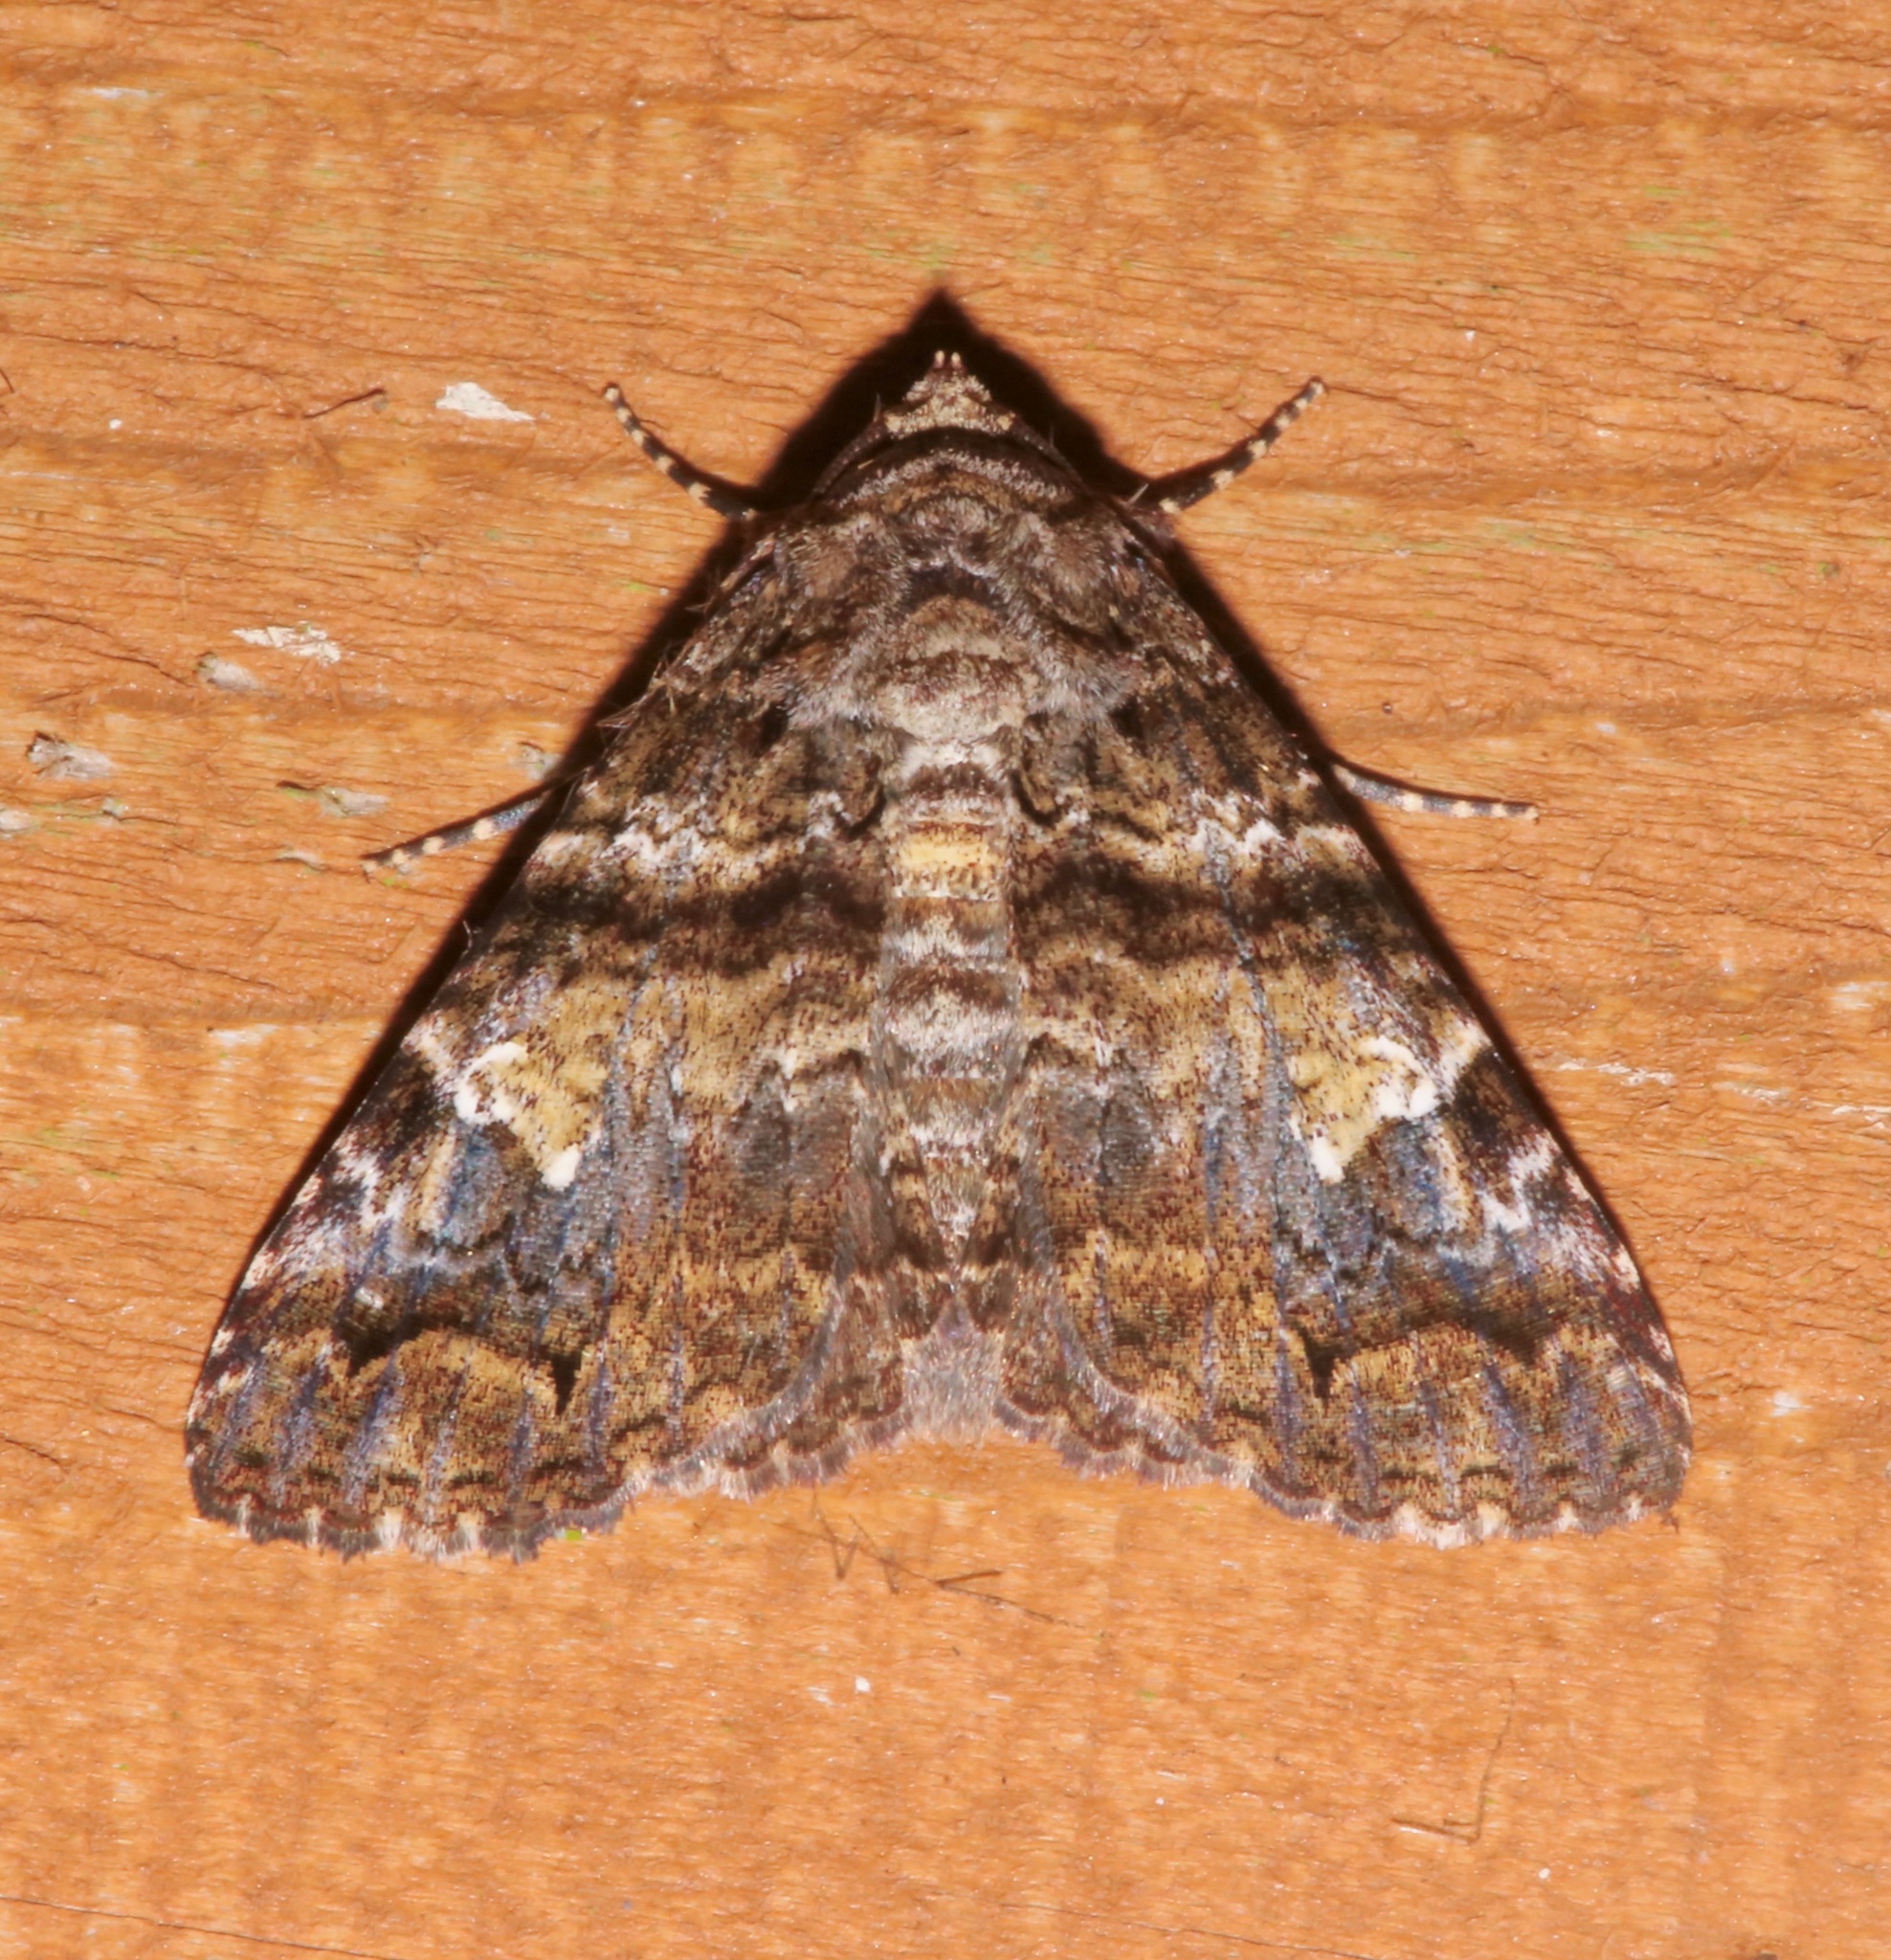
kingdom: Animalia
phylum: Arthropoda
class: Insecta
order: Lepidoptera
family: Erebidae
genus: Metria
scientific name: Metria amella
